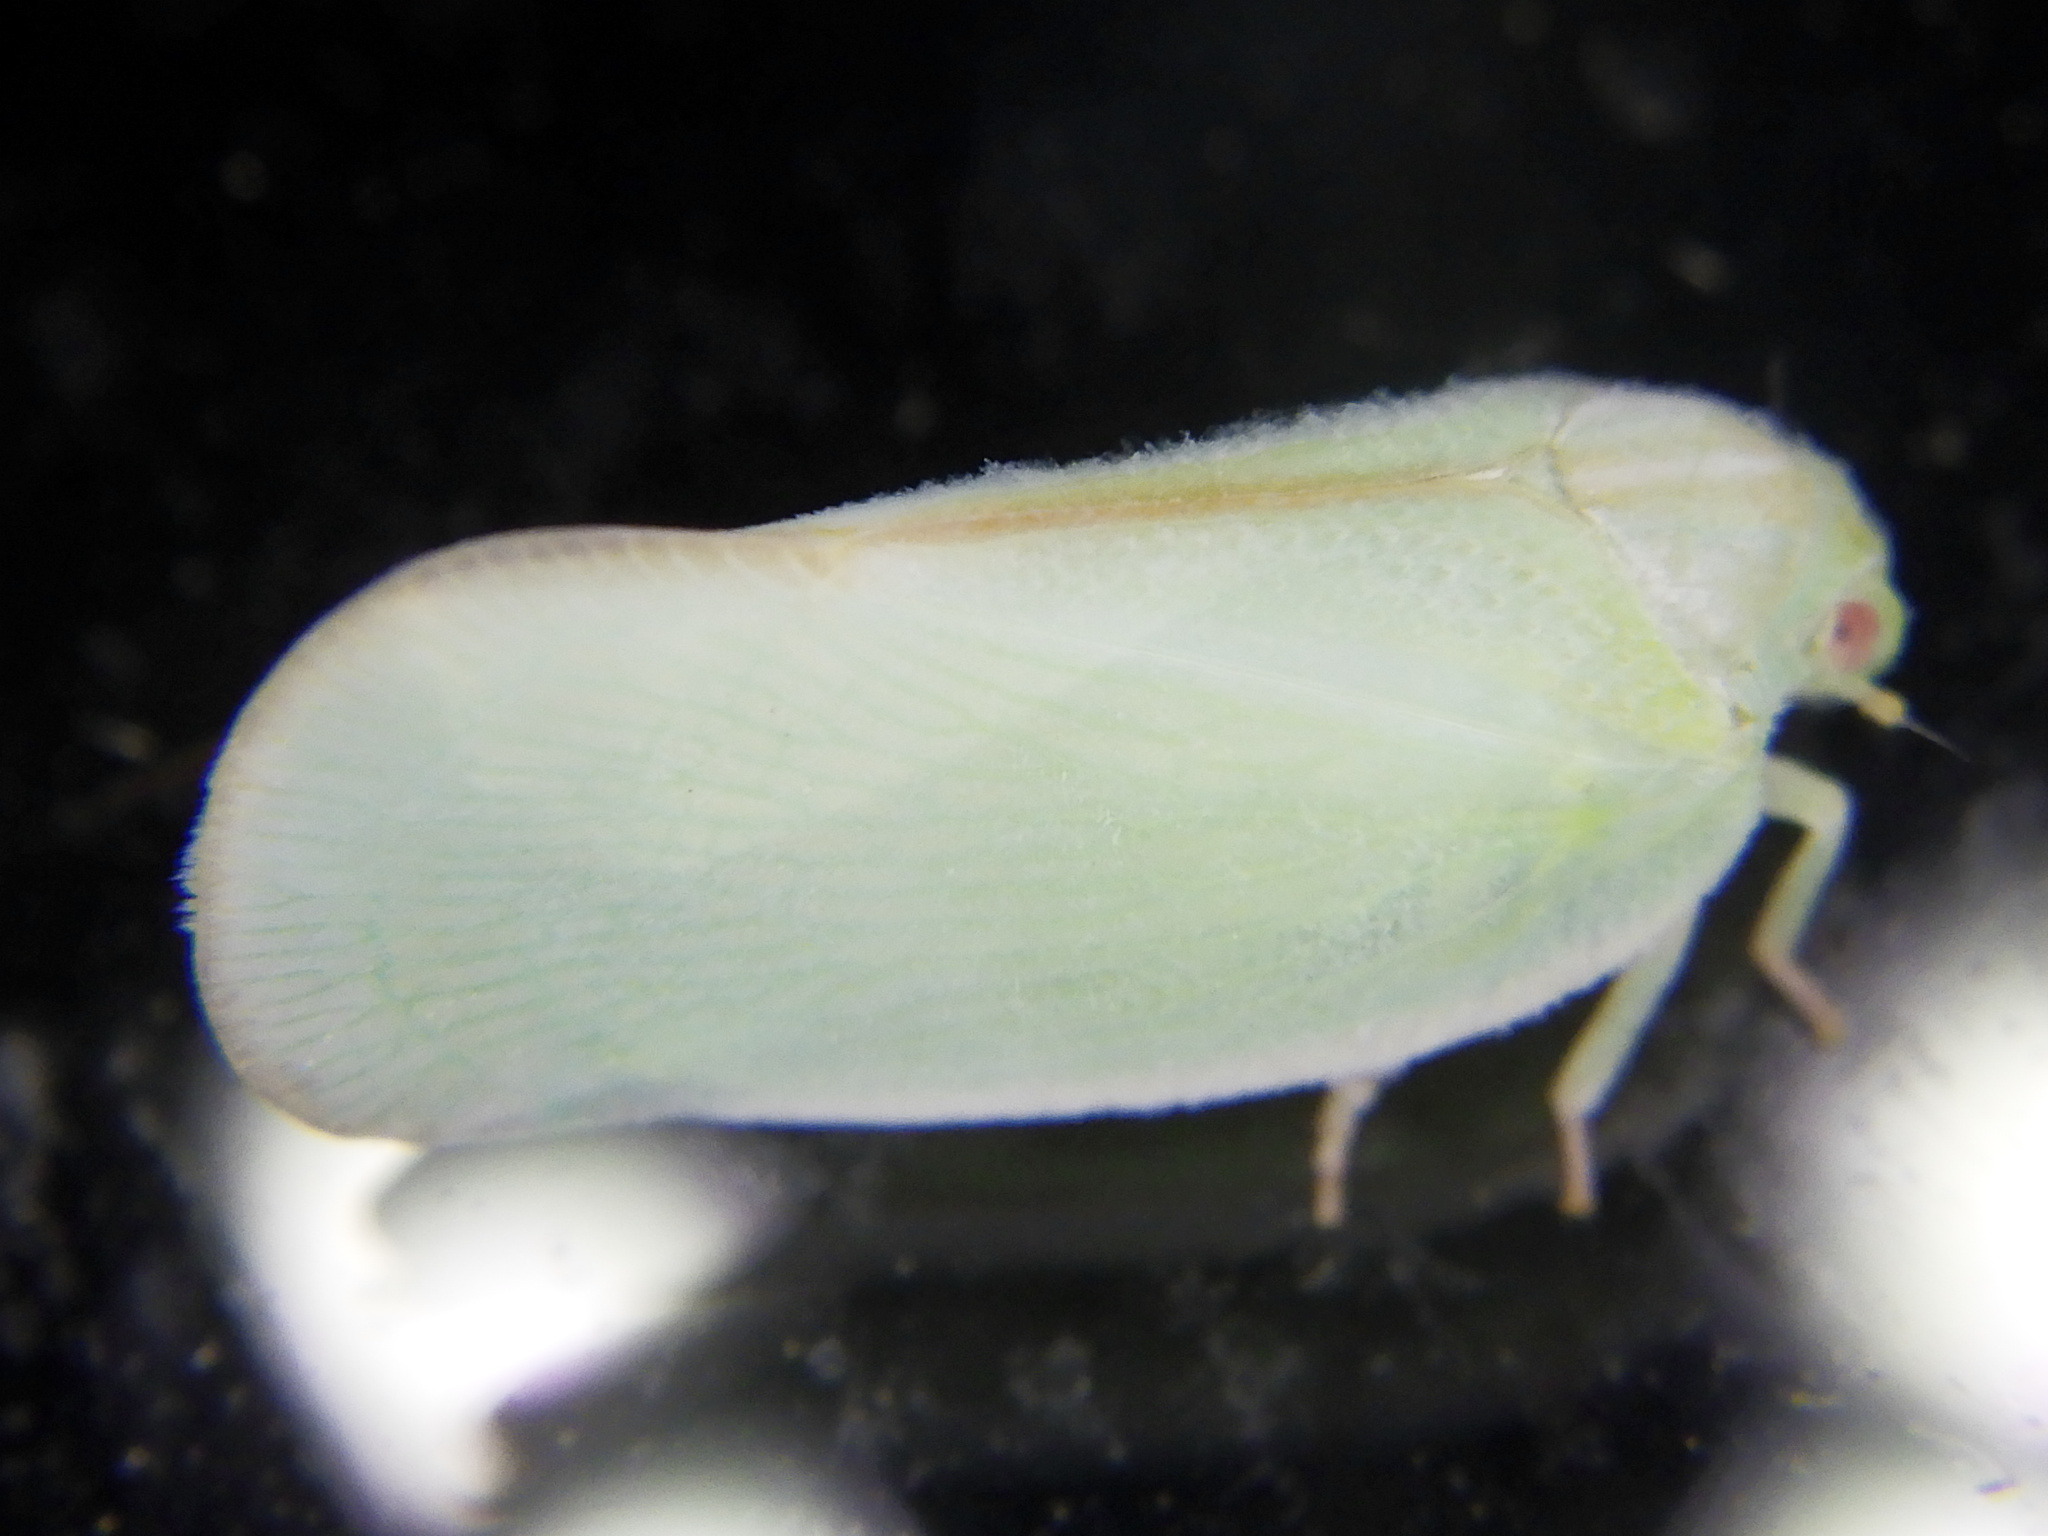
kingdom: Animalia
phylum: Arthropoda
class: Insecta
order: Hemiptera
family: Flatidae
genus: Ormenoides
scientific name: Ormenoides venusta
